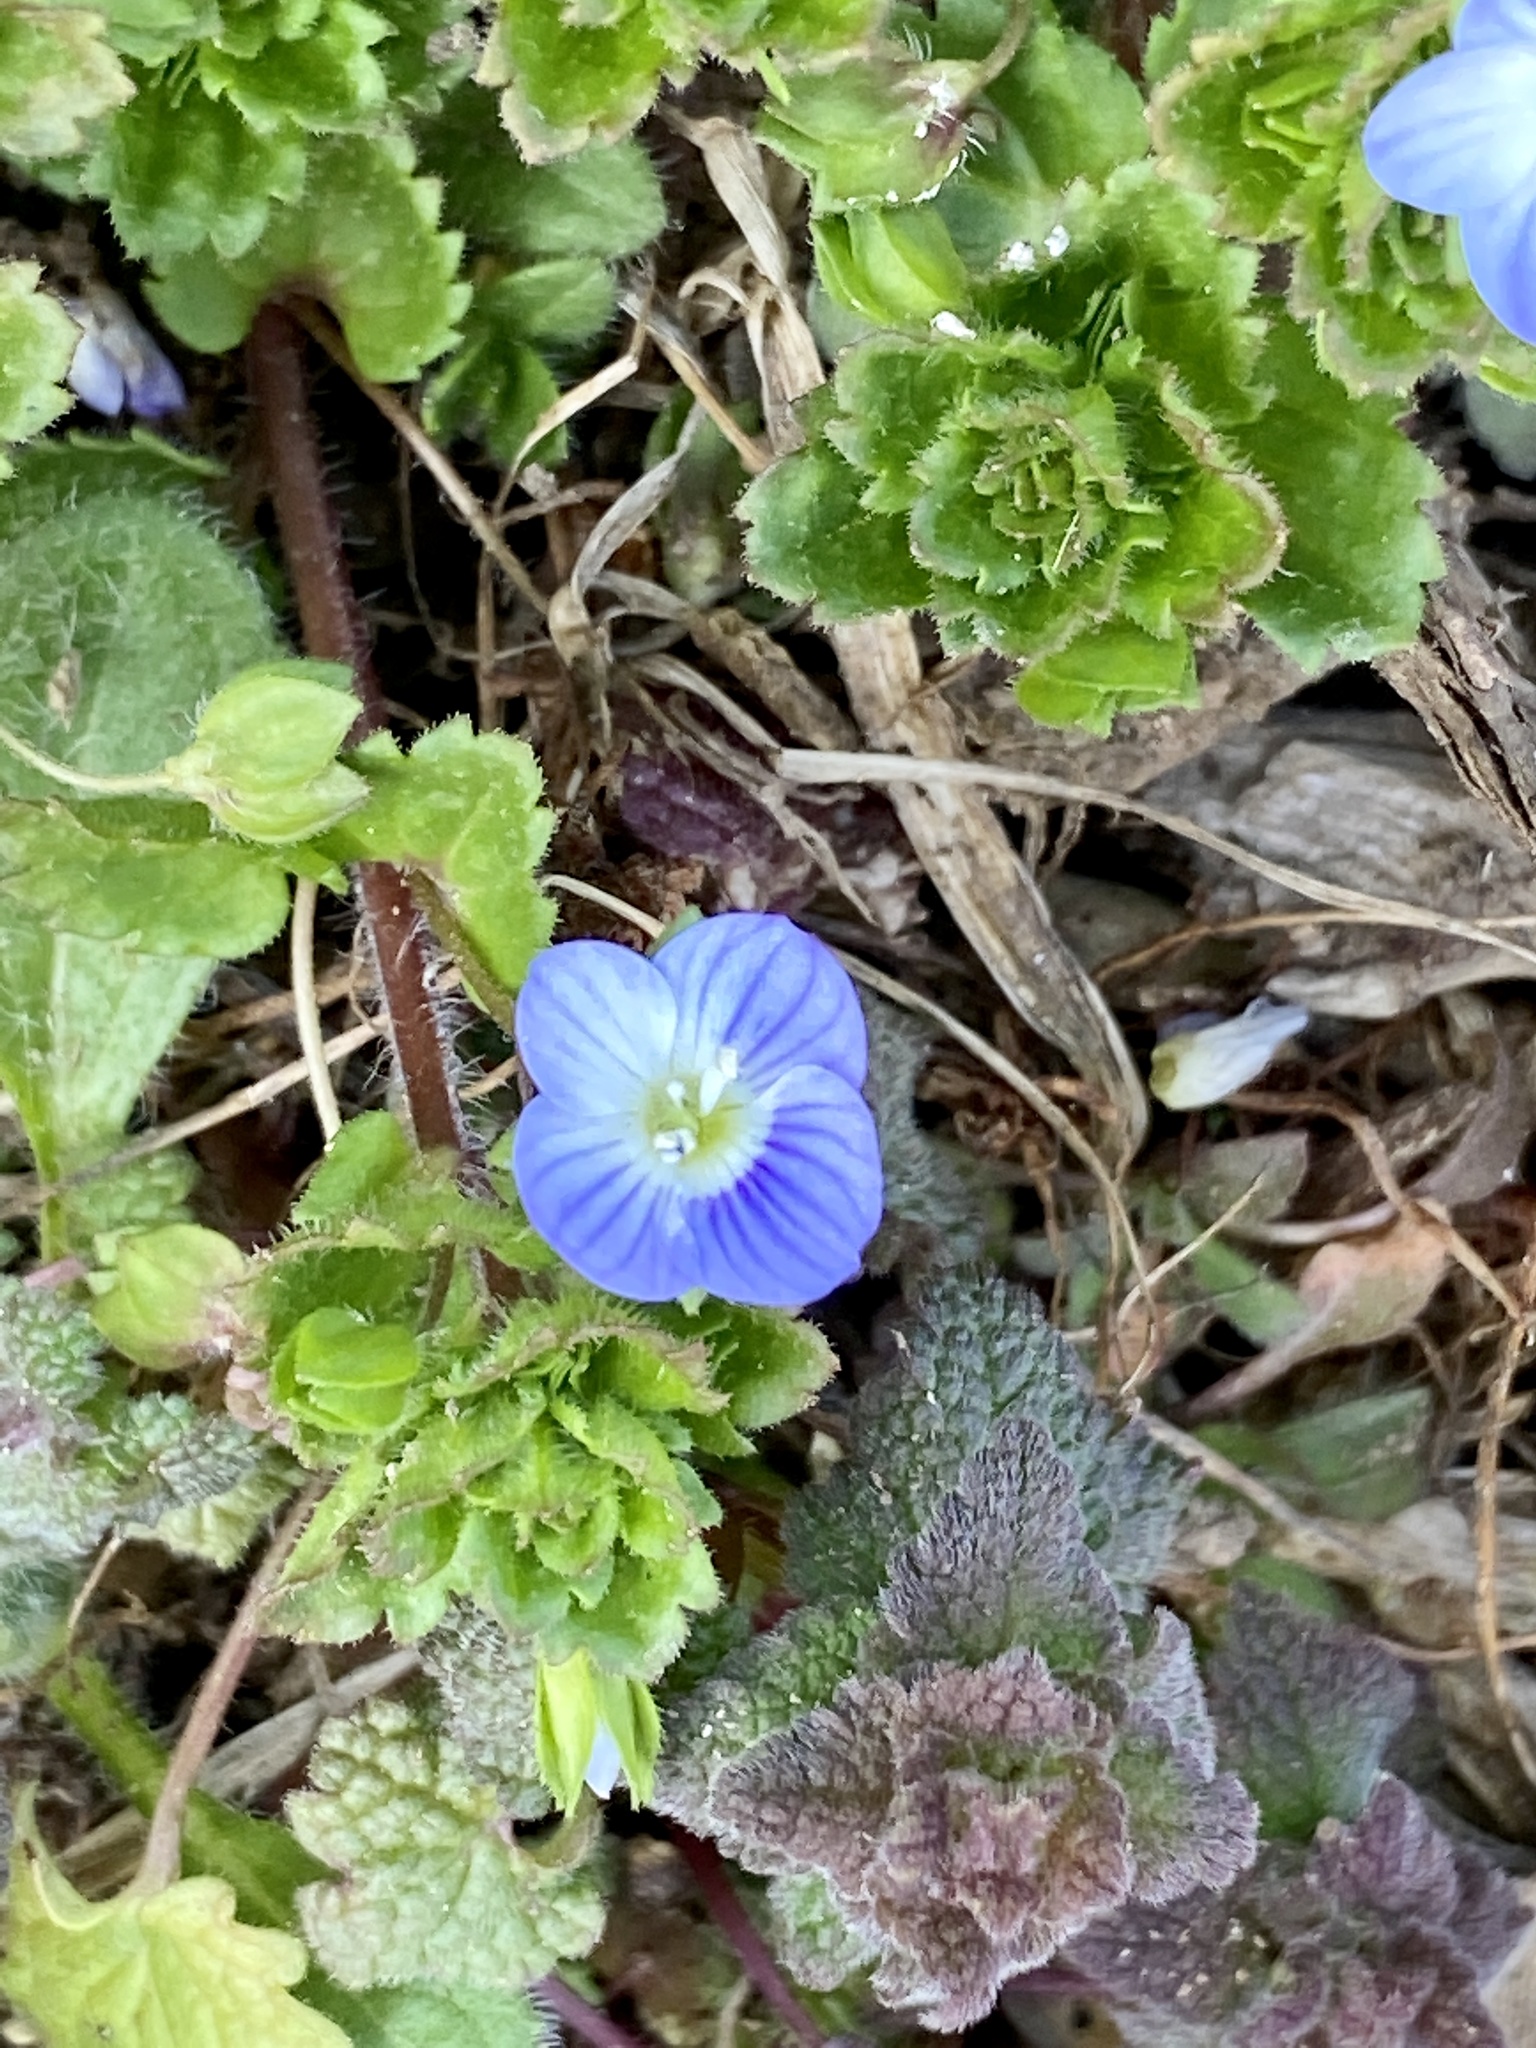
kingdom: Plantae
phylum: Tracheophyta
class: Magnoliopsida
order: Lamiales
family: Plantaginaceae
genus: Veronica
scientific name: Veronica persica
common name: Common field-speedwell
